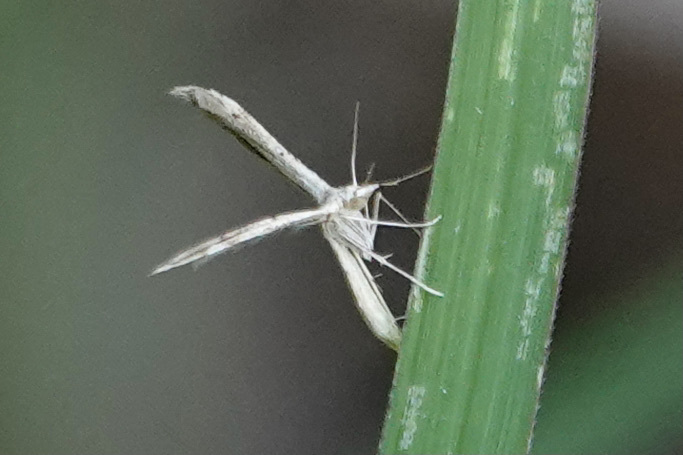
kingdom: Animalia
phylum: Arthropoda
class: Insecta
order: Lepidoptera
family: Pterophoridae
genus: Lioptilodes
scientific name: Lioptilodes albistriolatus
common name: Moth
